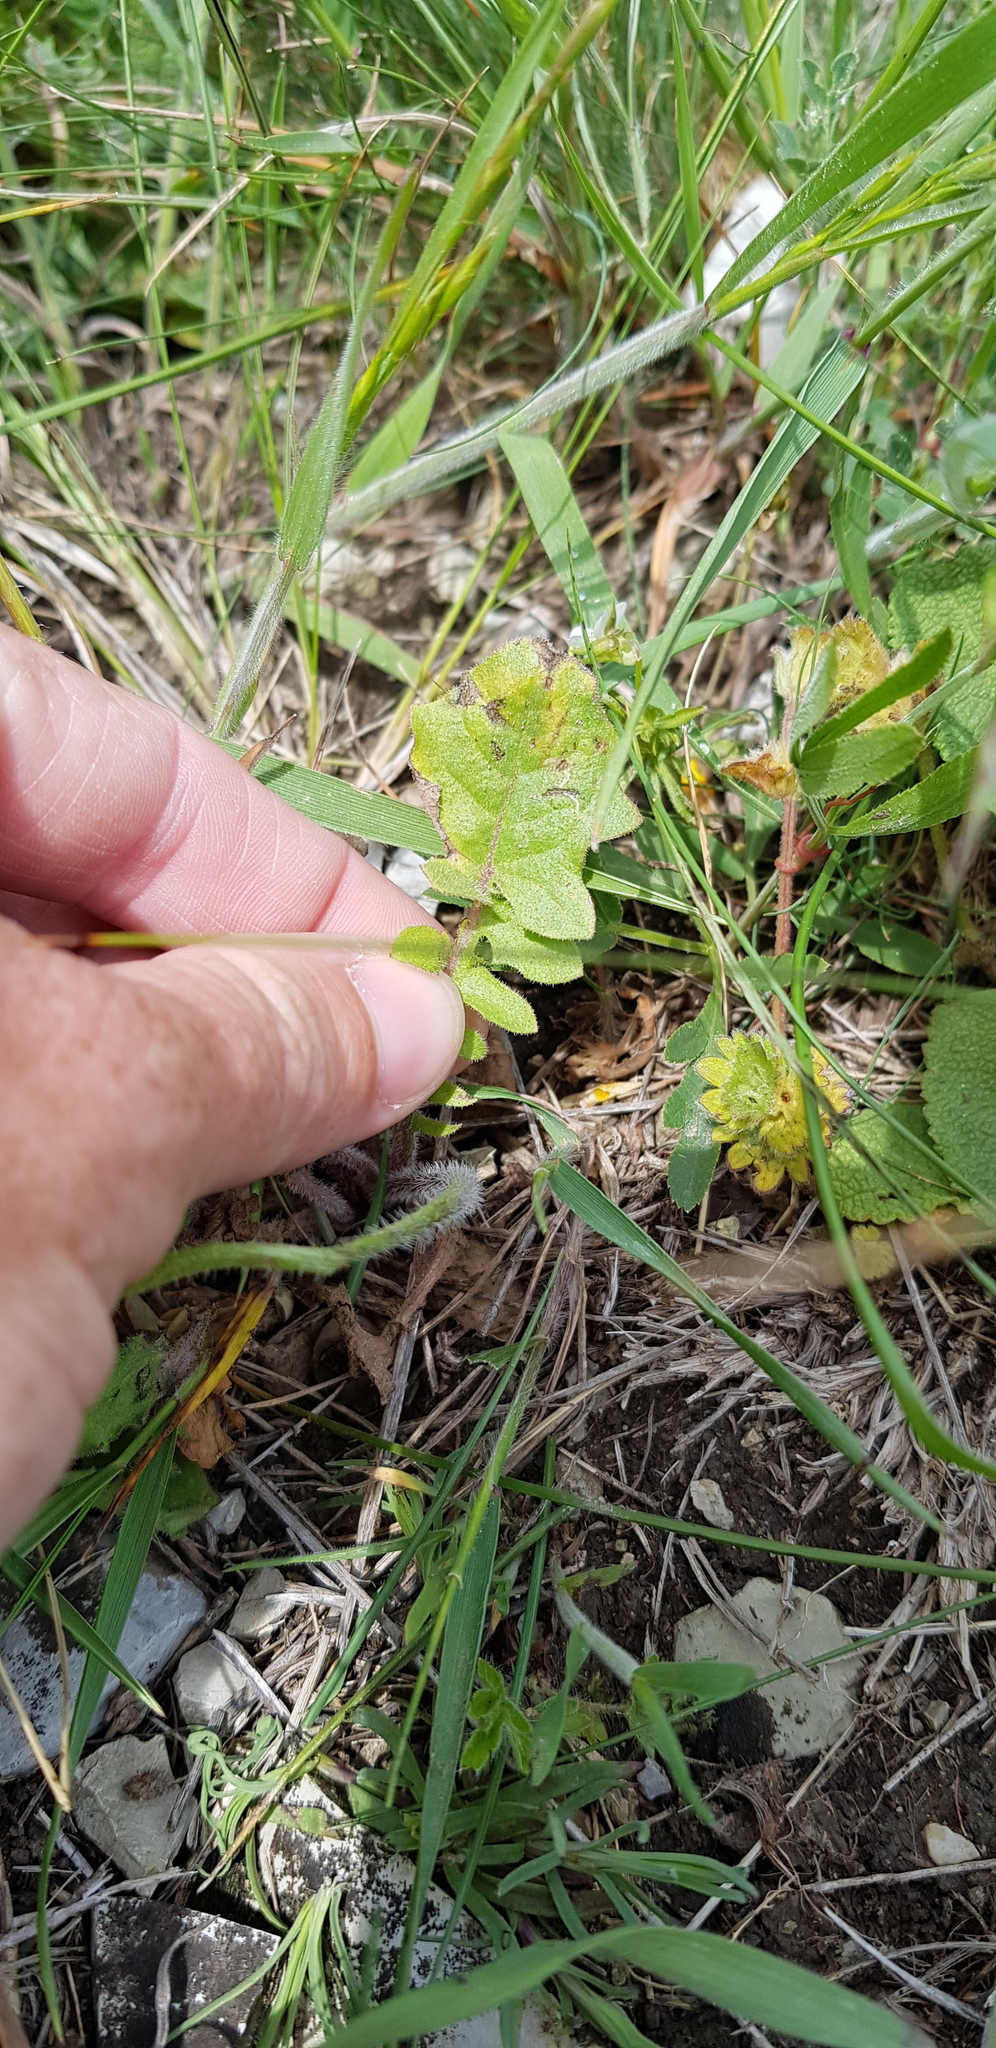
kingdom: Plantae
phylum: Tracheophyta
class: Magnoliopsida
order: Asterales
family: Asteraceae
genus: Crepis
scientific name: Crepis sancta
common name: Hawk's-beard
